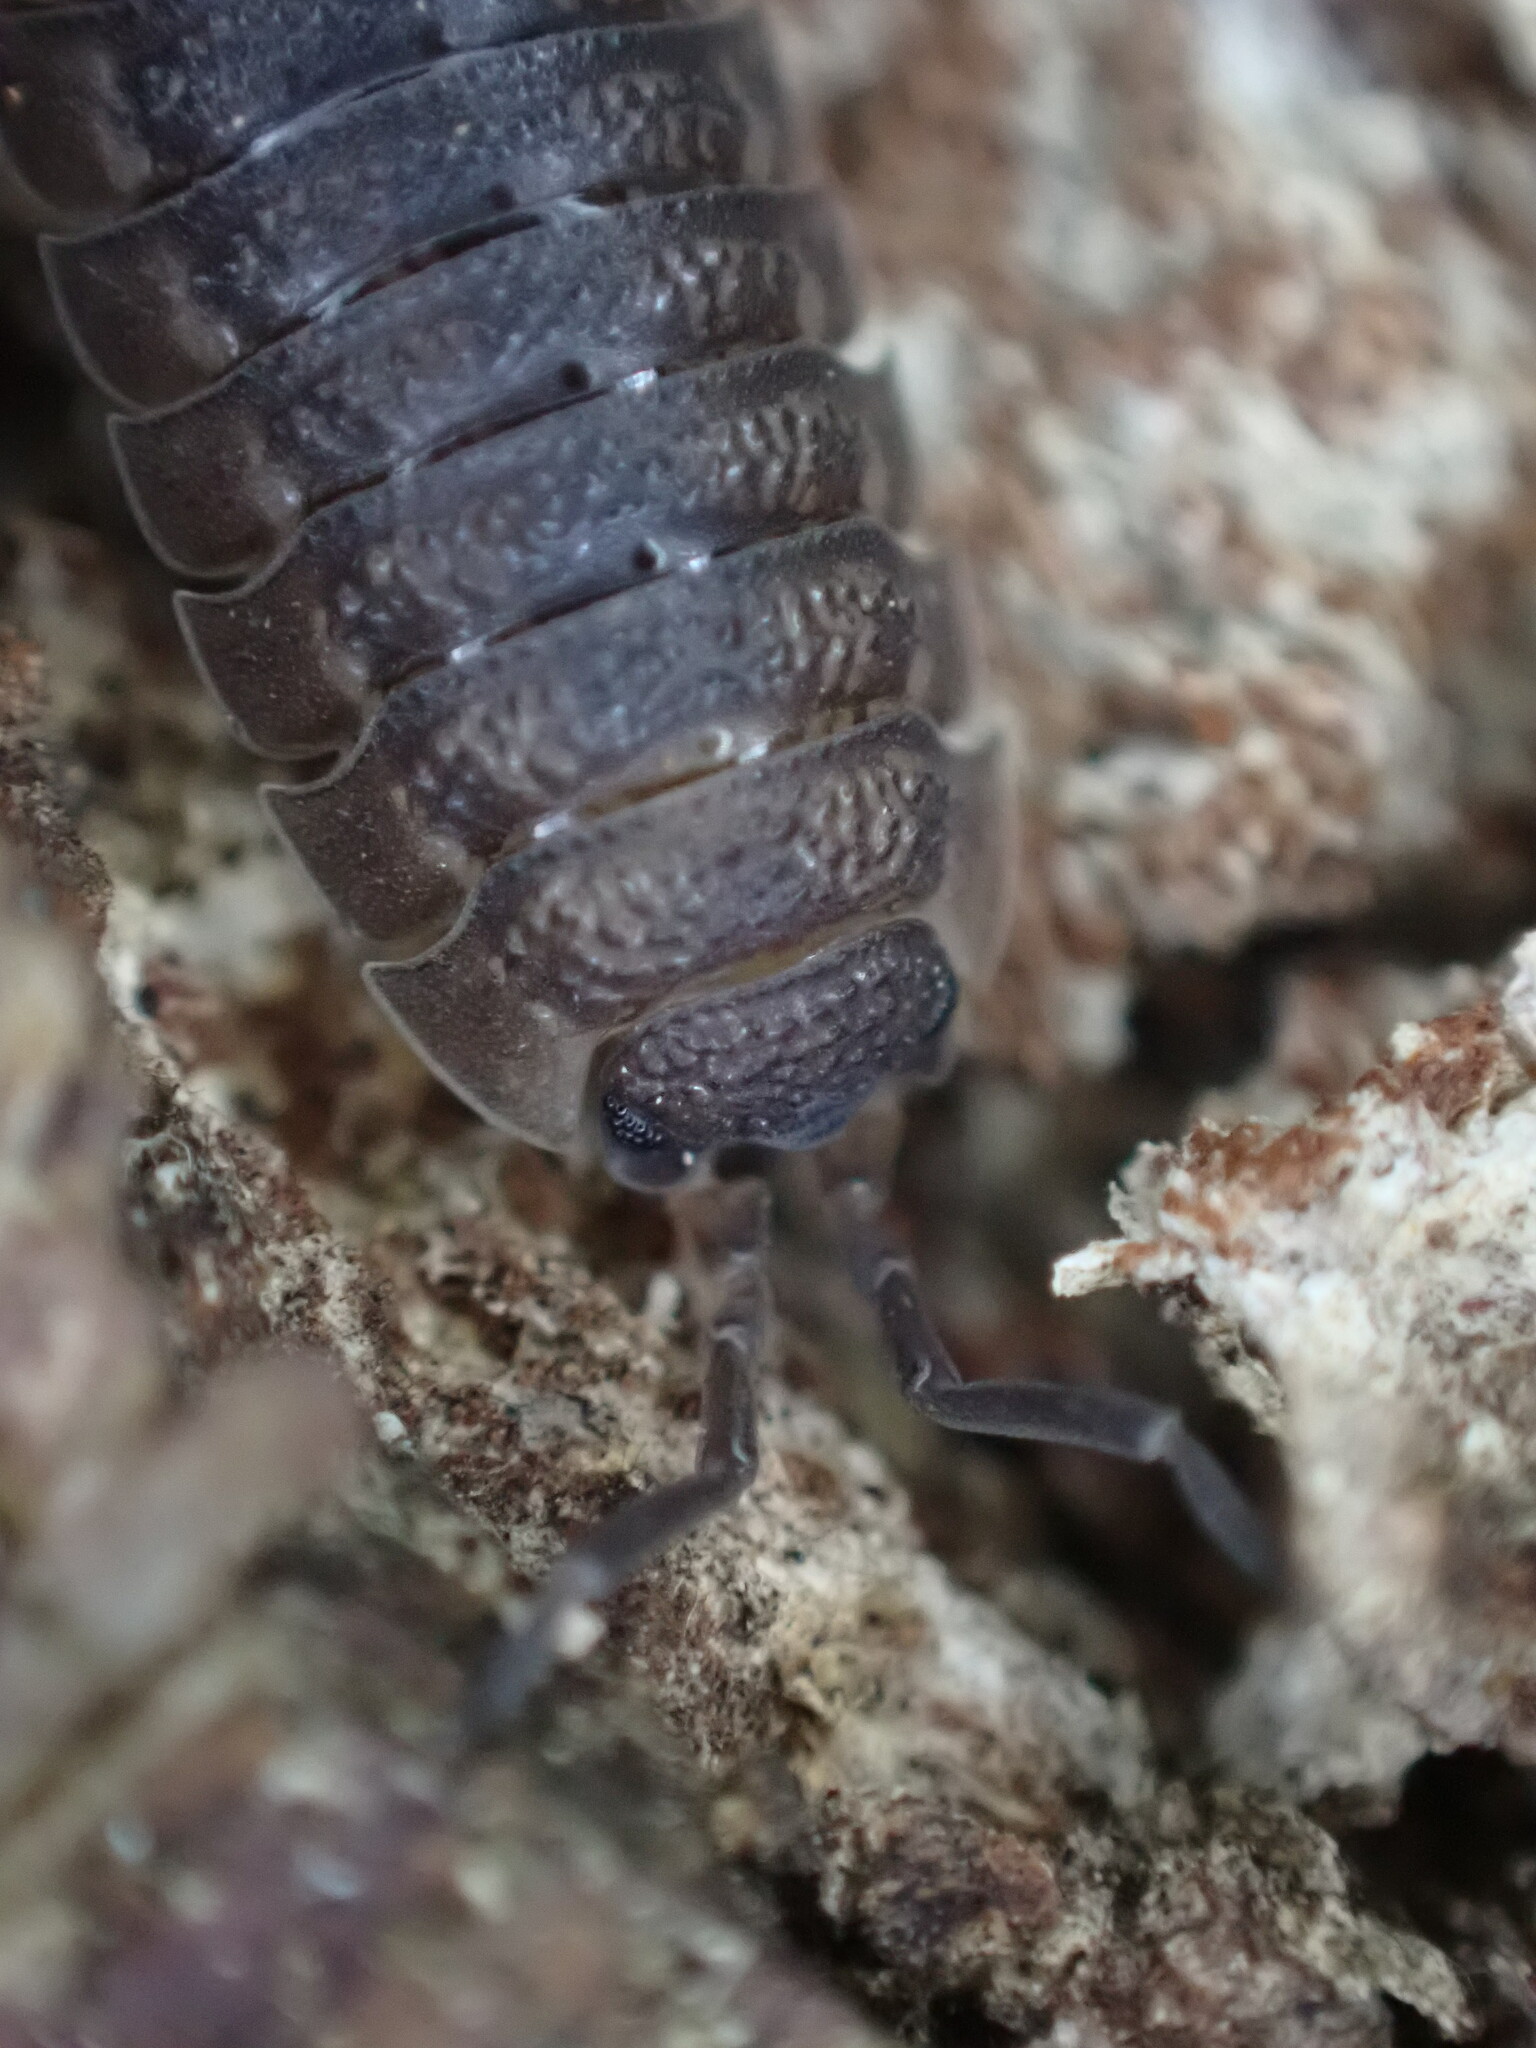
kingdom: Animalia
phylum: Arthropoda
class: Malacostraca
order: Isopoda
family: Porcellionidae
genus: Porcellio
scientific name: Porcellio scaber
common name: Common rough woodlouse
